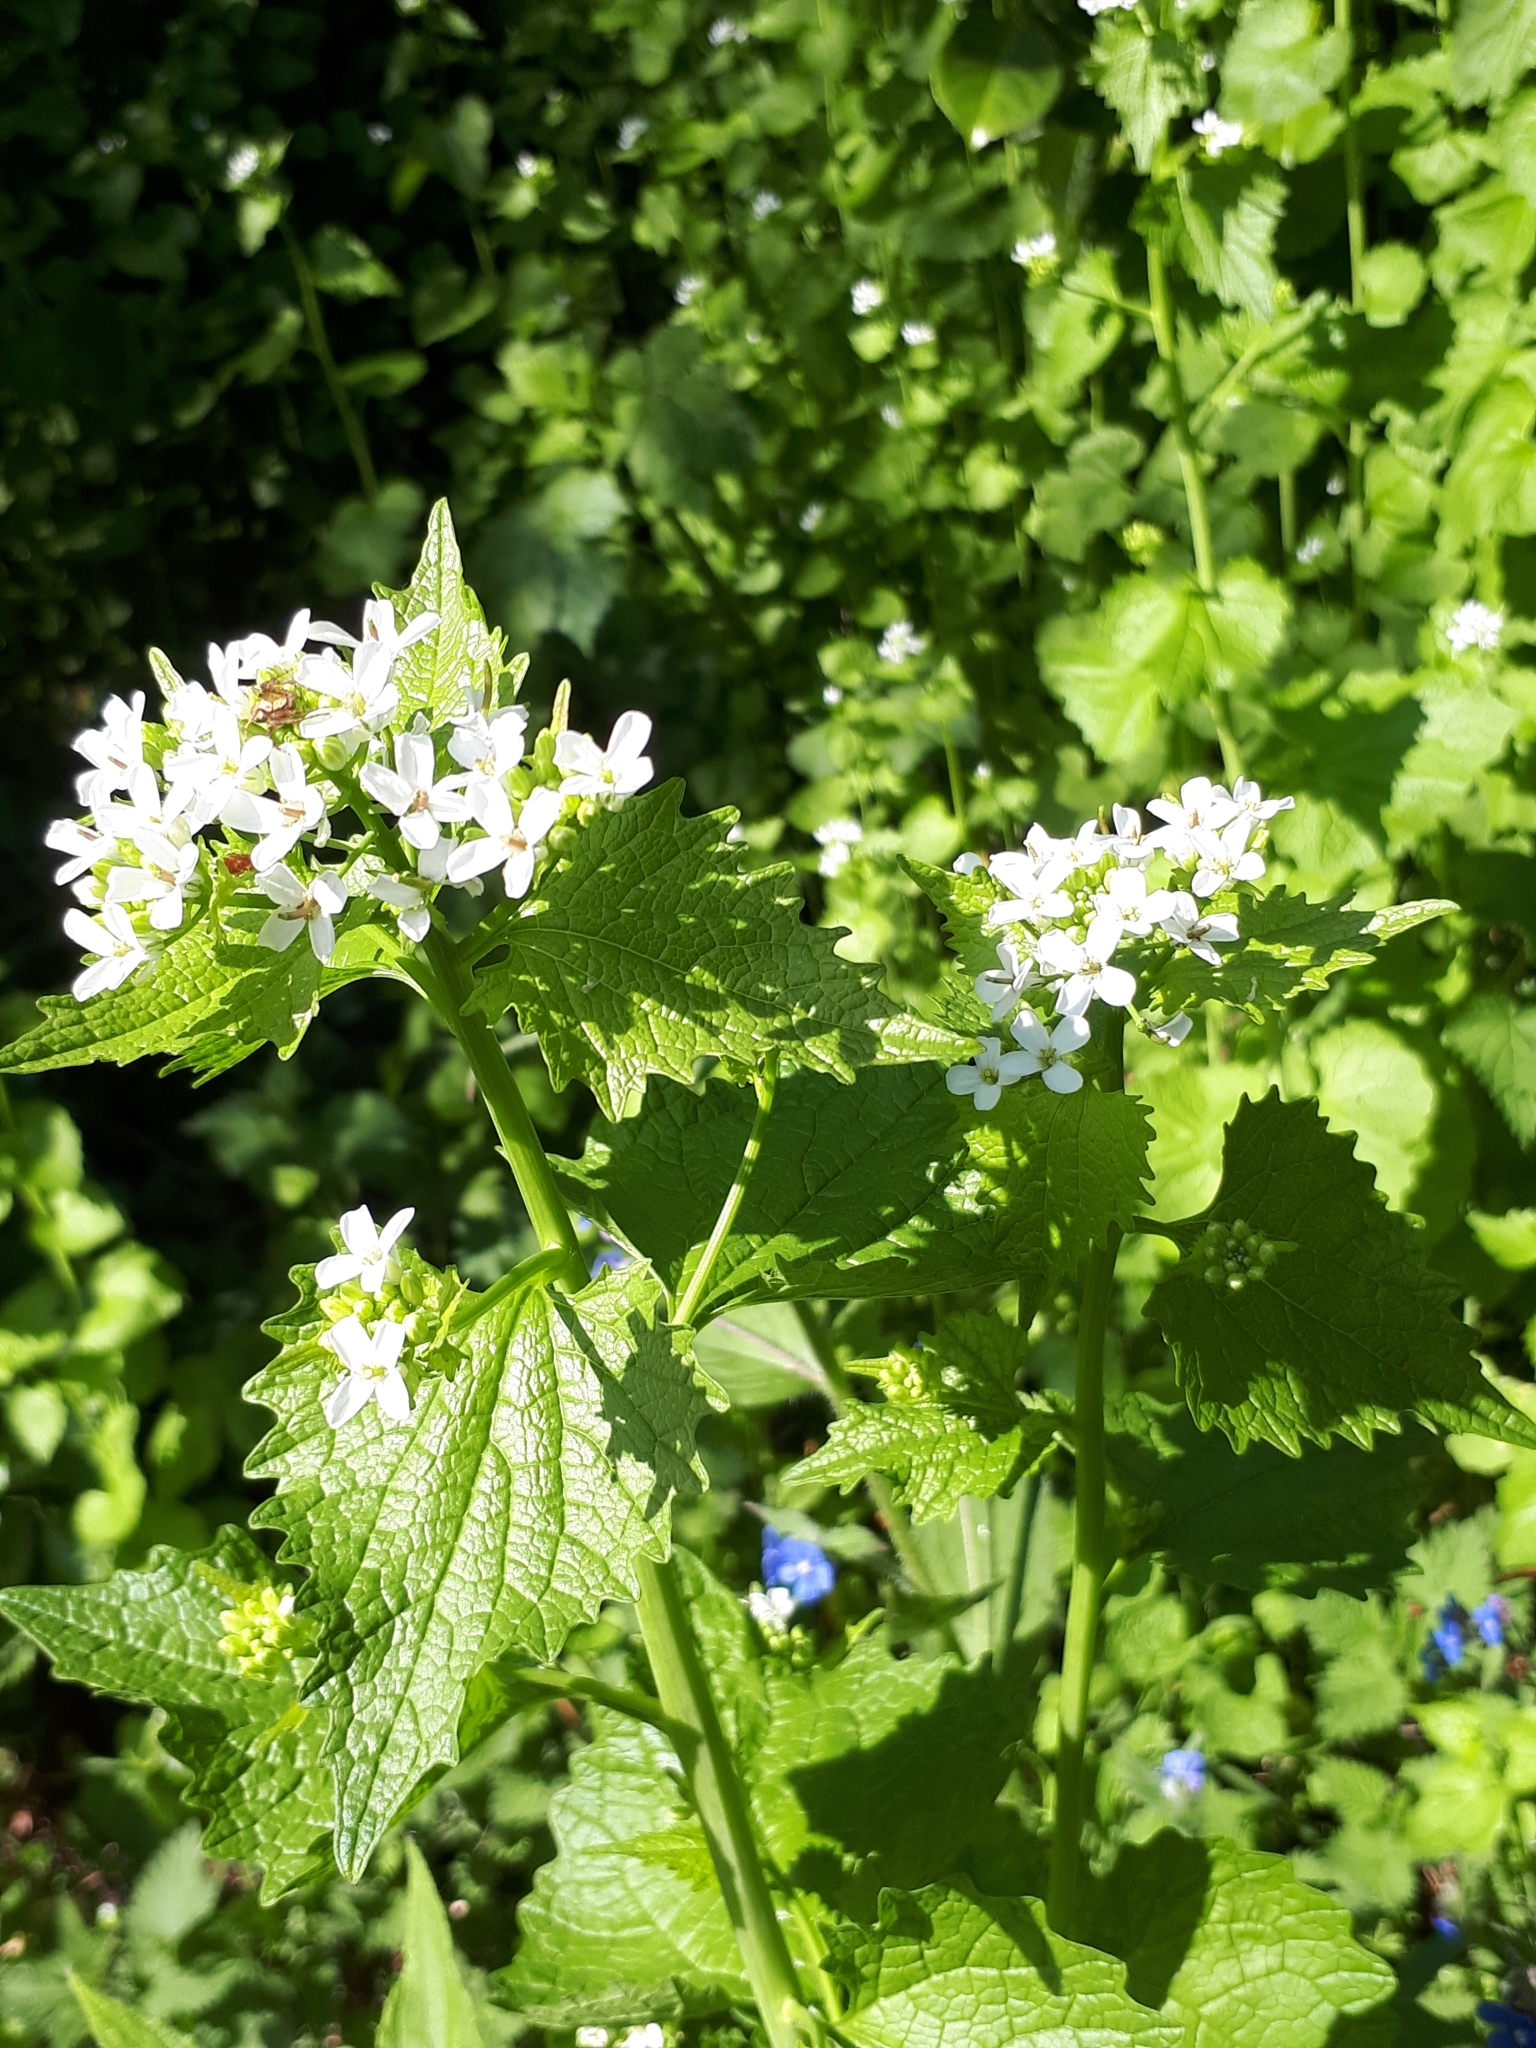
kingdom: Plantae
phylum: Tracheophyta
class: Magnoliopsida
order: Brassicales
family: Brassicaceae
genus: Alliaria
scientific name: Alliaria petiolata
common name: Garlic mustard
